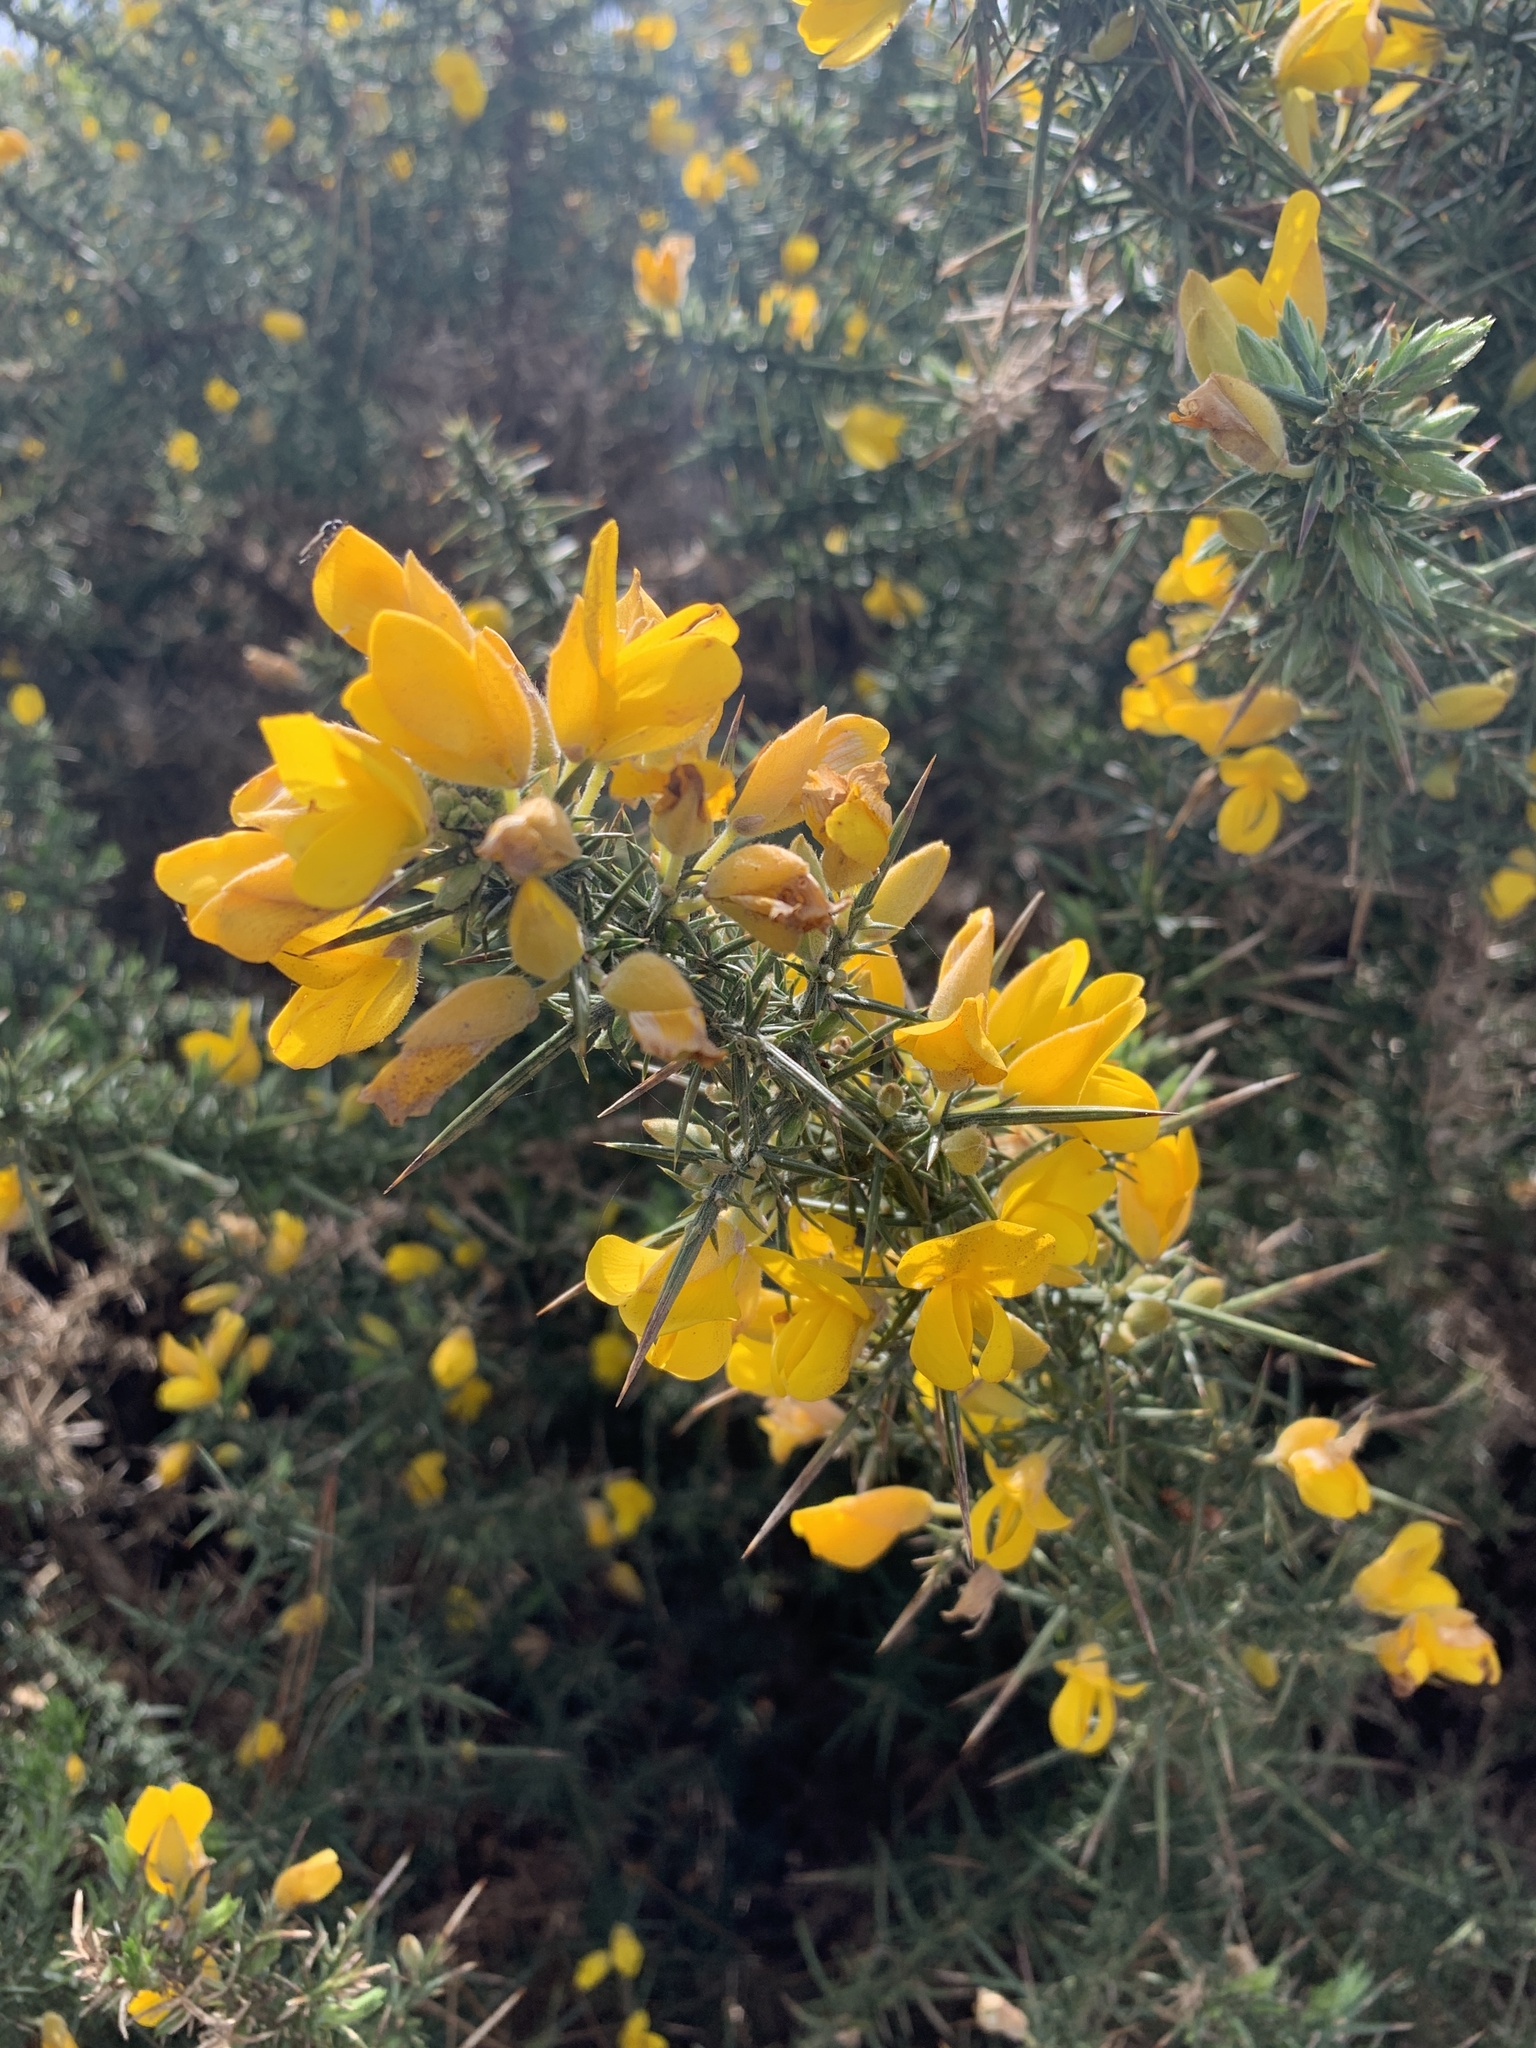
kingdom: Plantae
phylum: Tracheophyta
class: Magnoliopsida
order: Fabales
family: Fabaceae
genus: Ulex
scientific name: Ulex europaeus
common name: Common gorse
